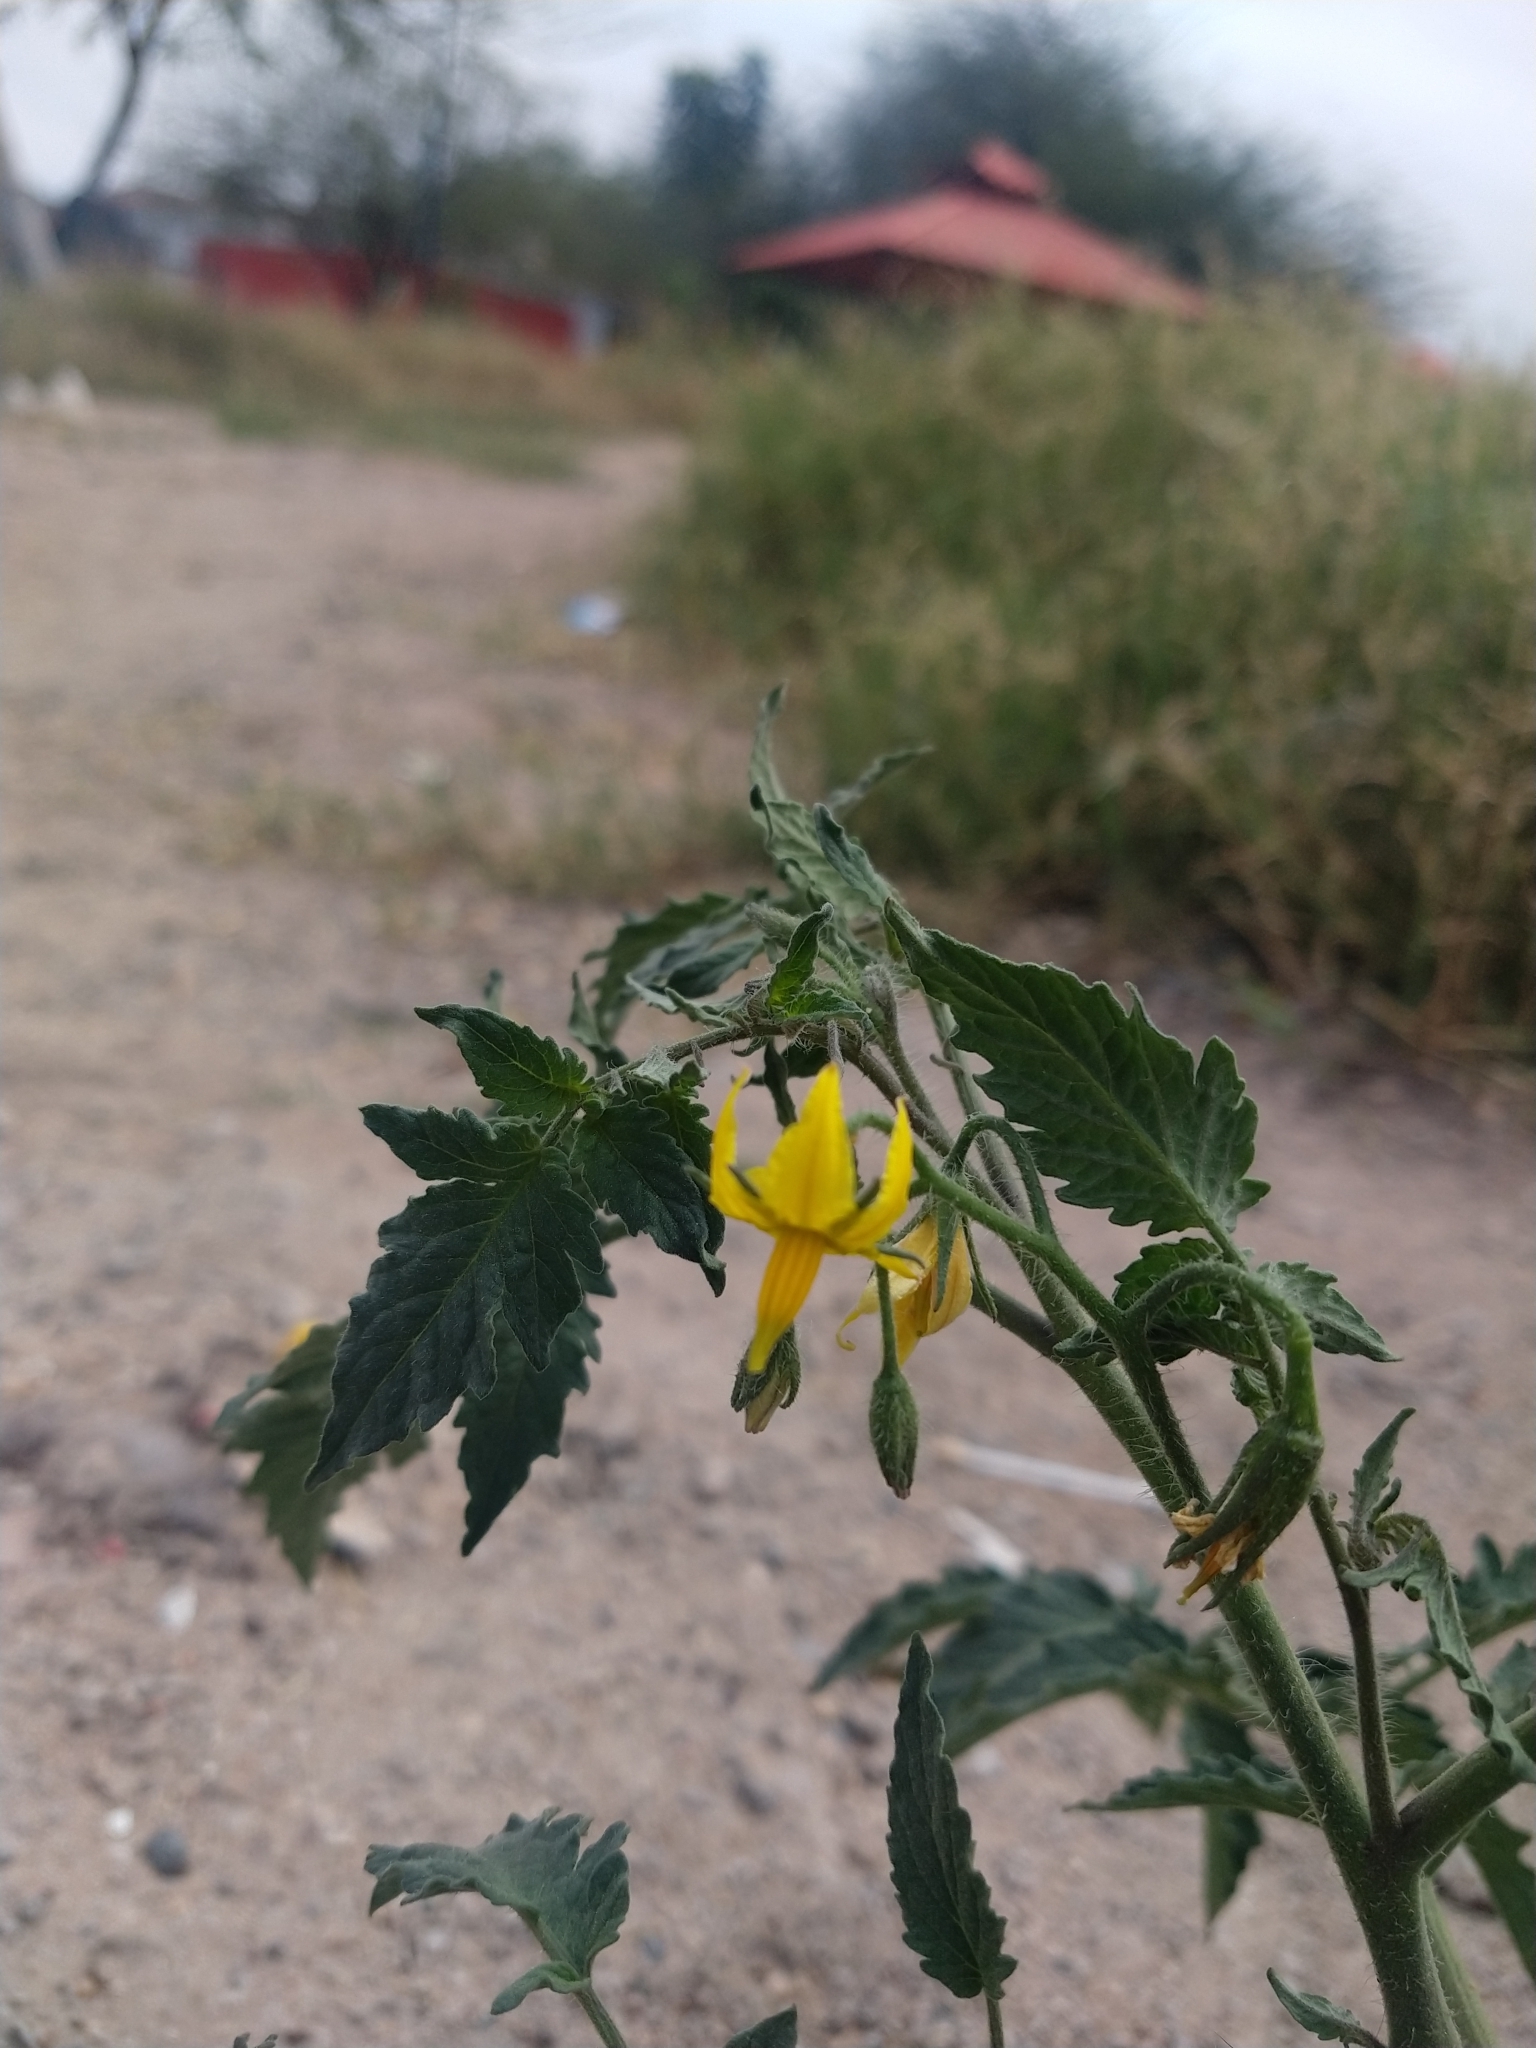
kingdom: Plantae
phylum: Tracheophyta
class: Magnoliopsida
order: Solanales
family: Solanaceae
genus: Solanum
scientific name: Solanum lycopersicum
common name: Garden tomato
